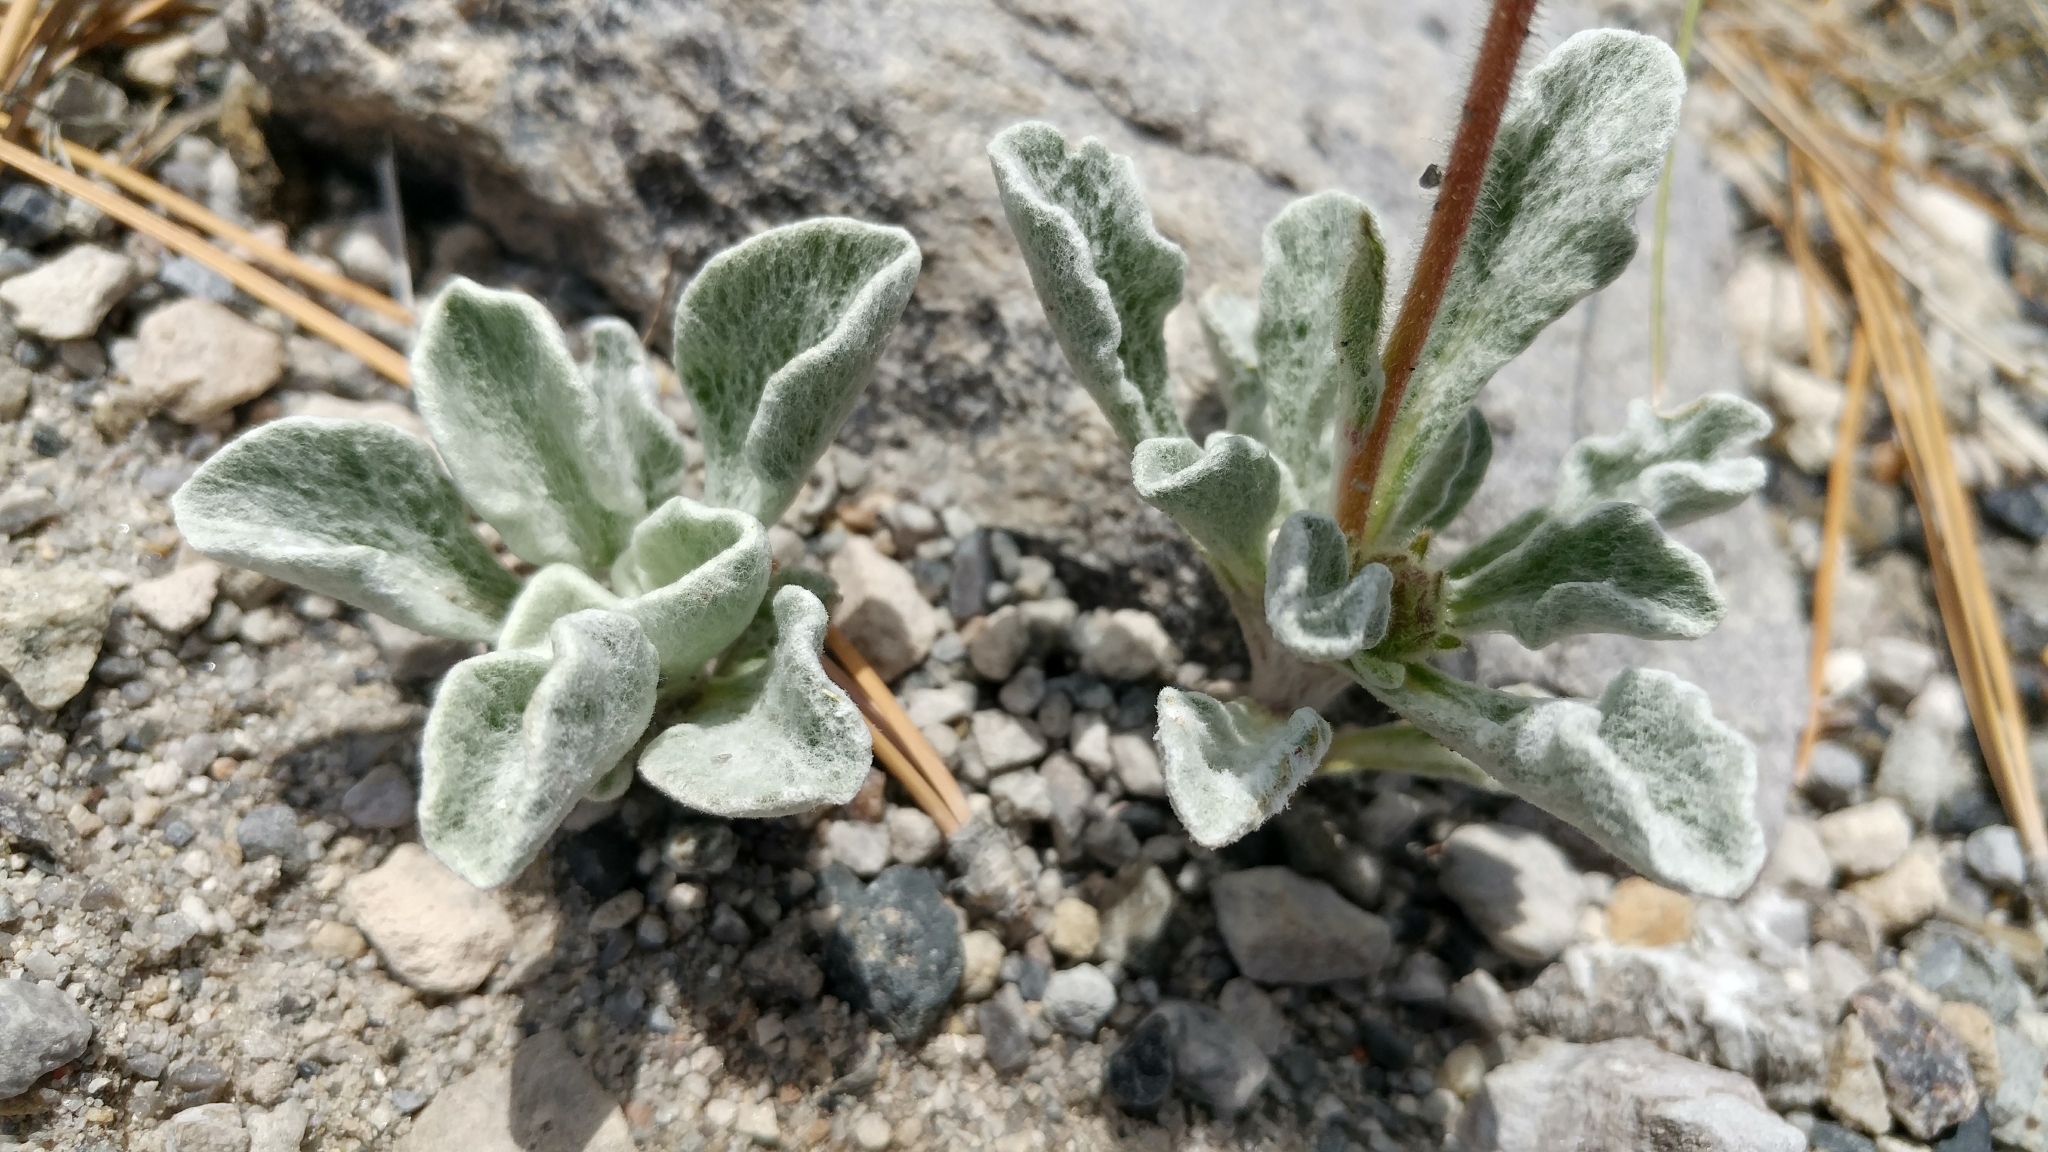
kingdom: Plantae
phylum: Tracheophyta
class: Magnoliopsida
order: Asterales
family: Asteraceae
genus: Hulsea
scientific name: Hulsea vestita
